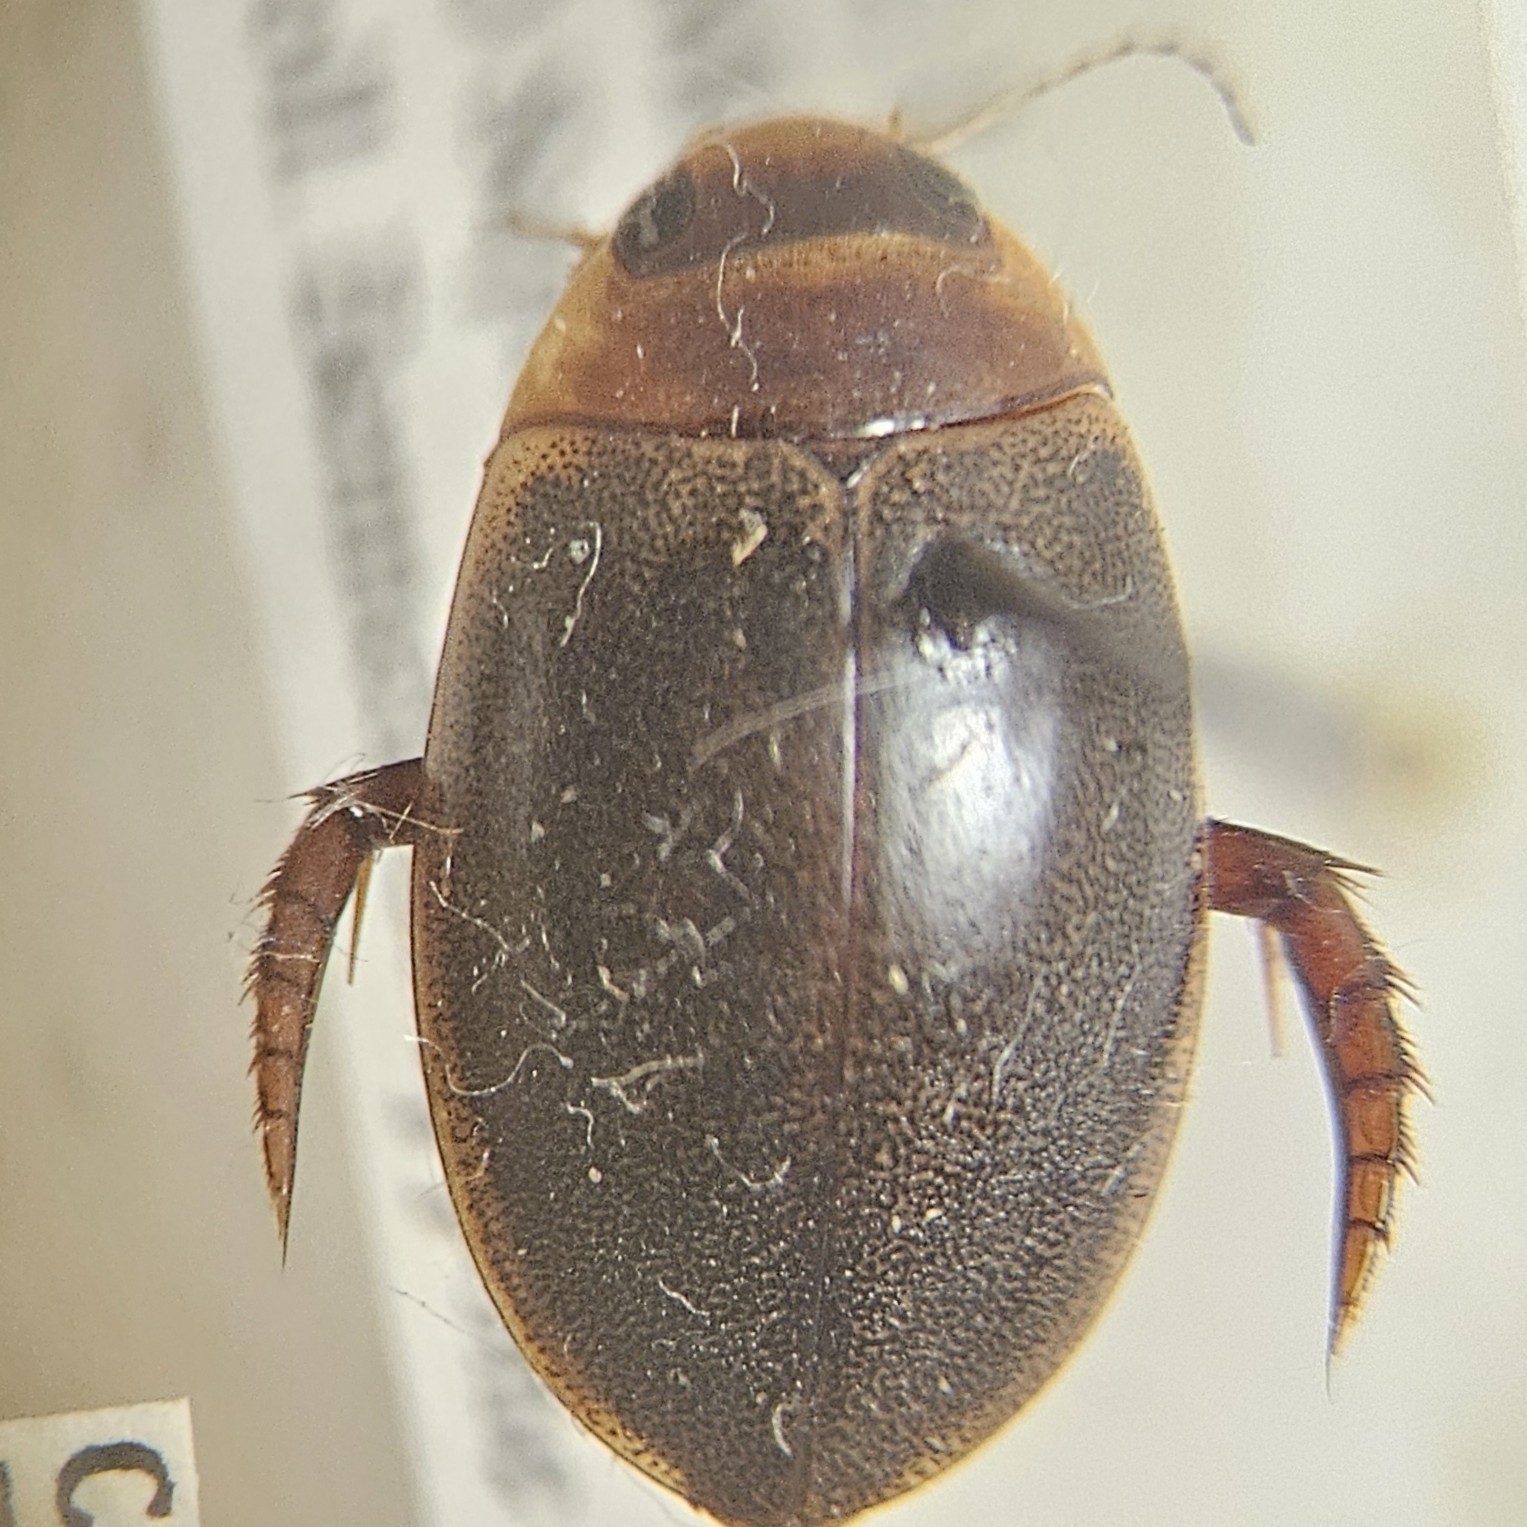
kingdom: Animalia
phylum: Arthropoda
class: Insecta
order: Coleoptera
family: Dytiscidae
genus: Graphoderus
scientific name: Graphoderus liberus
